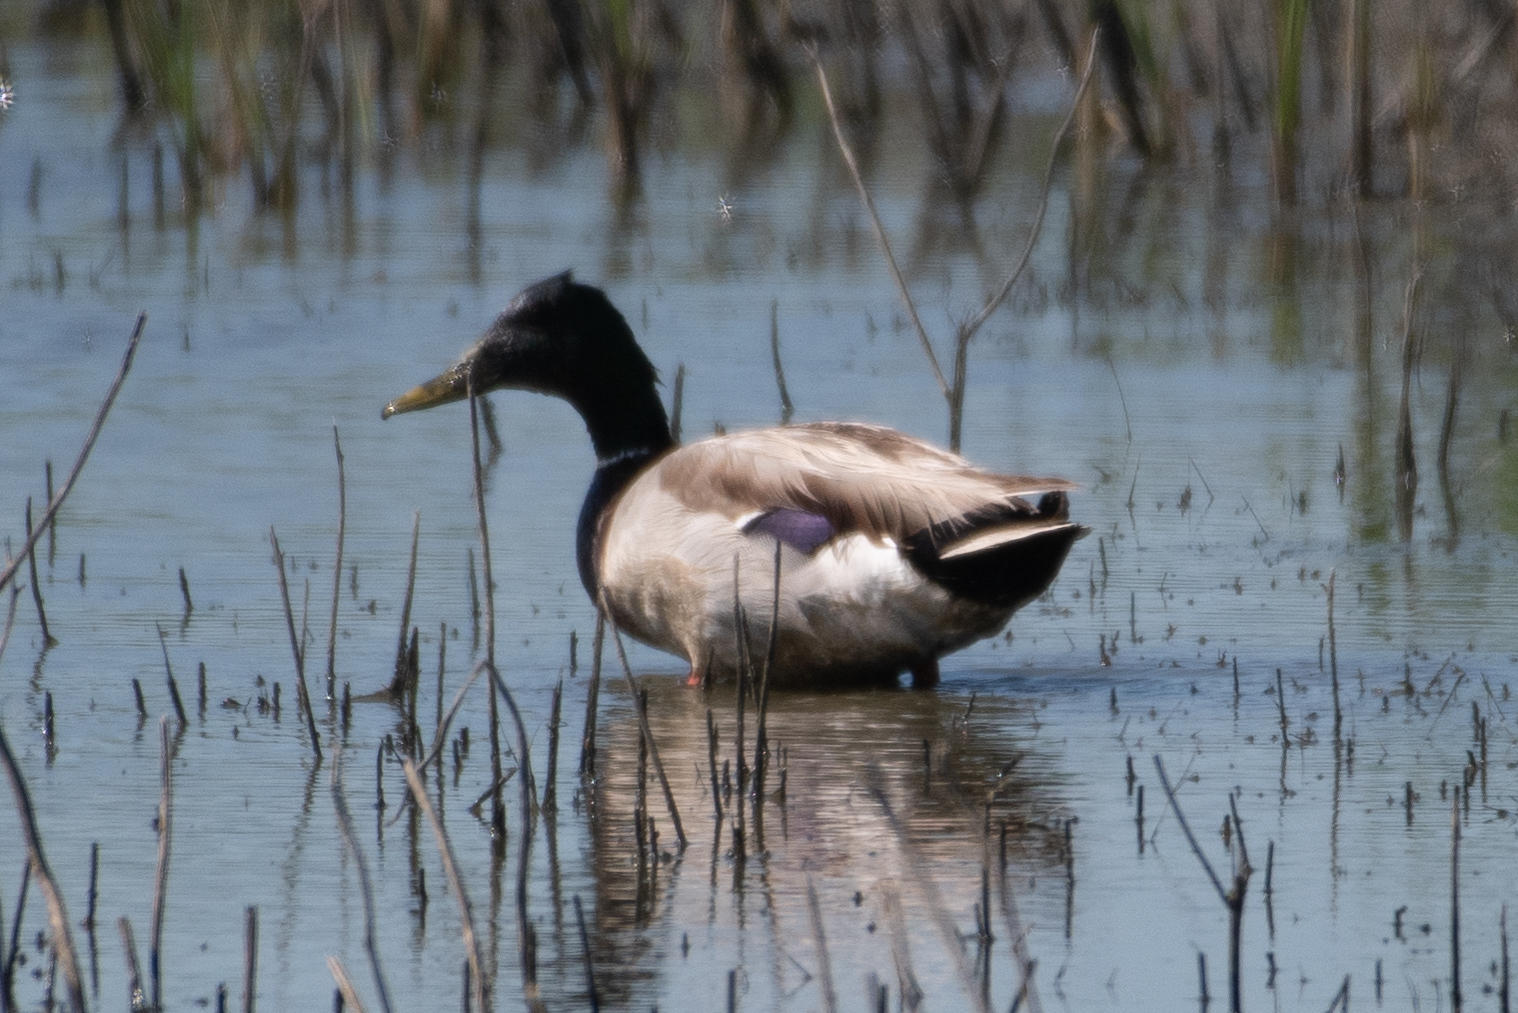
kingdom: Animalia
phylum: Chordata
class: Aves
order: Anseriformes
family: Anatidae
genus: Anas
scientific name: Anas platyrhynchos
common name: Mallard
